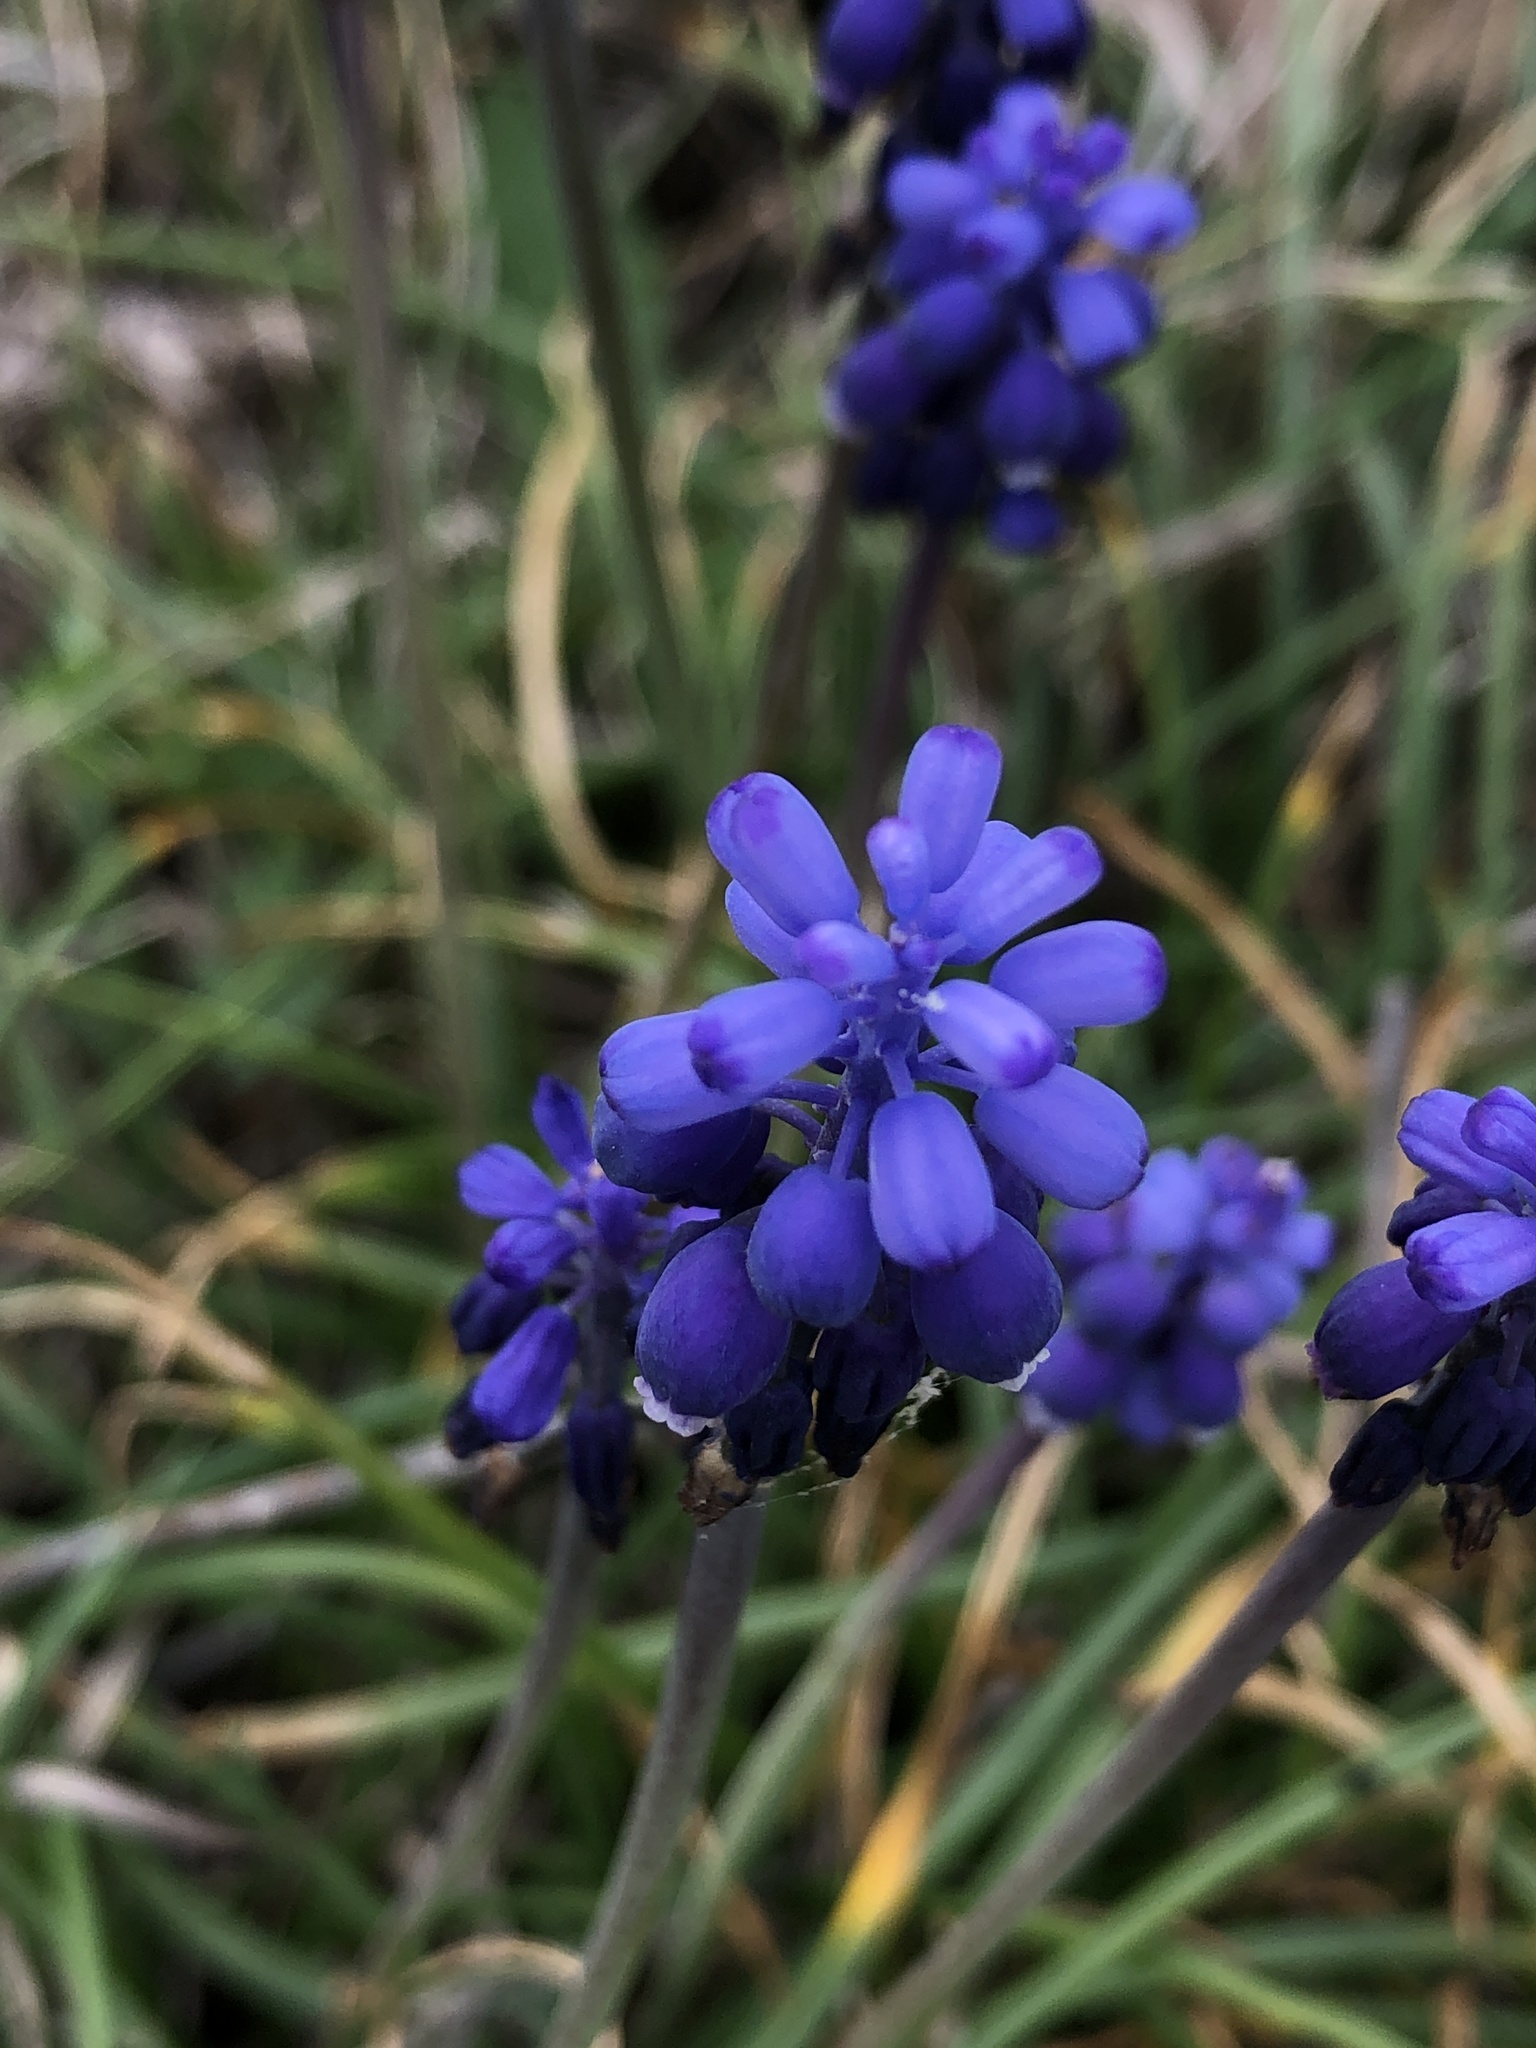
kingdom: Plantae
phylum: Tracheophyta
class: Liliopsida
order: Asparagales
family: Asparagaceae
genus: Muscari
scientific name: Muscari neglectum
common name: Grape-hyacinth
